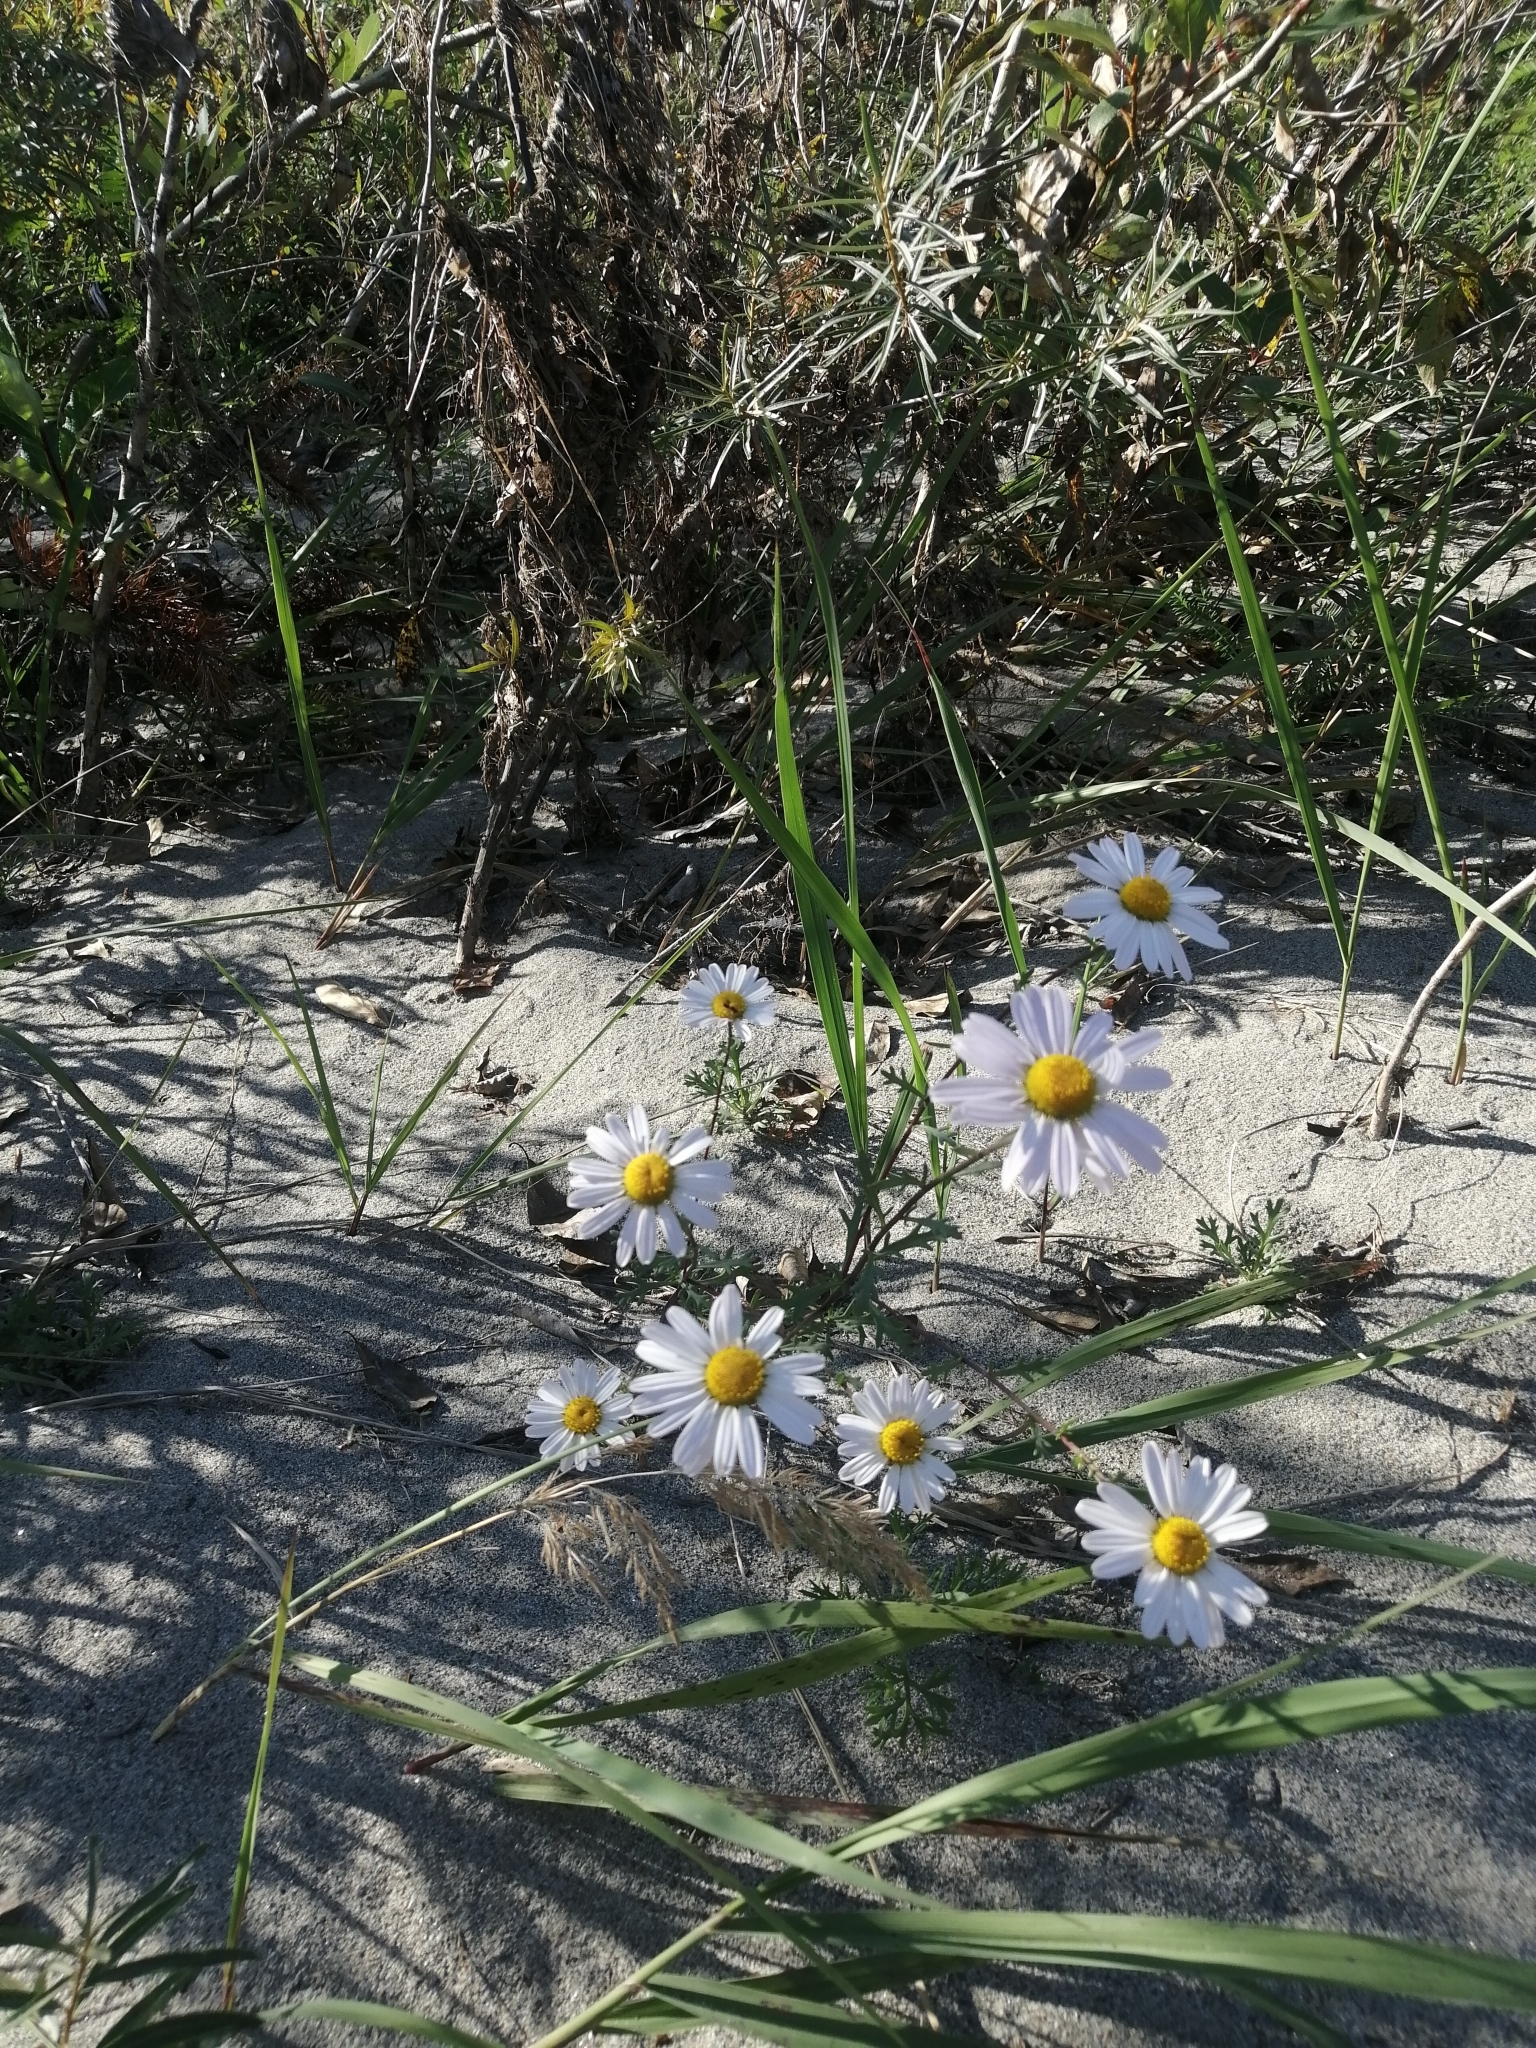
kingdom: Plantae
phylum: Tracheophyta
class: Magnoliopsida
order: Asterales
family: Asteraceae
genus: Chrysanthemum
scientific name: Chrysanthemum zawadzkii
